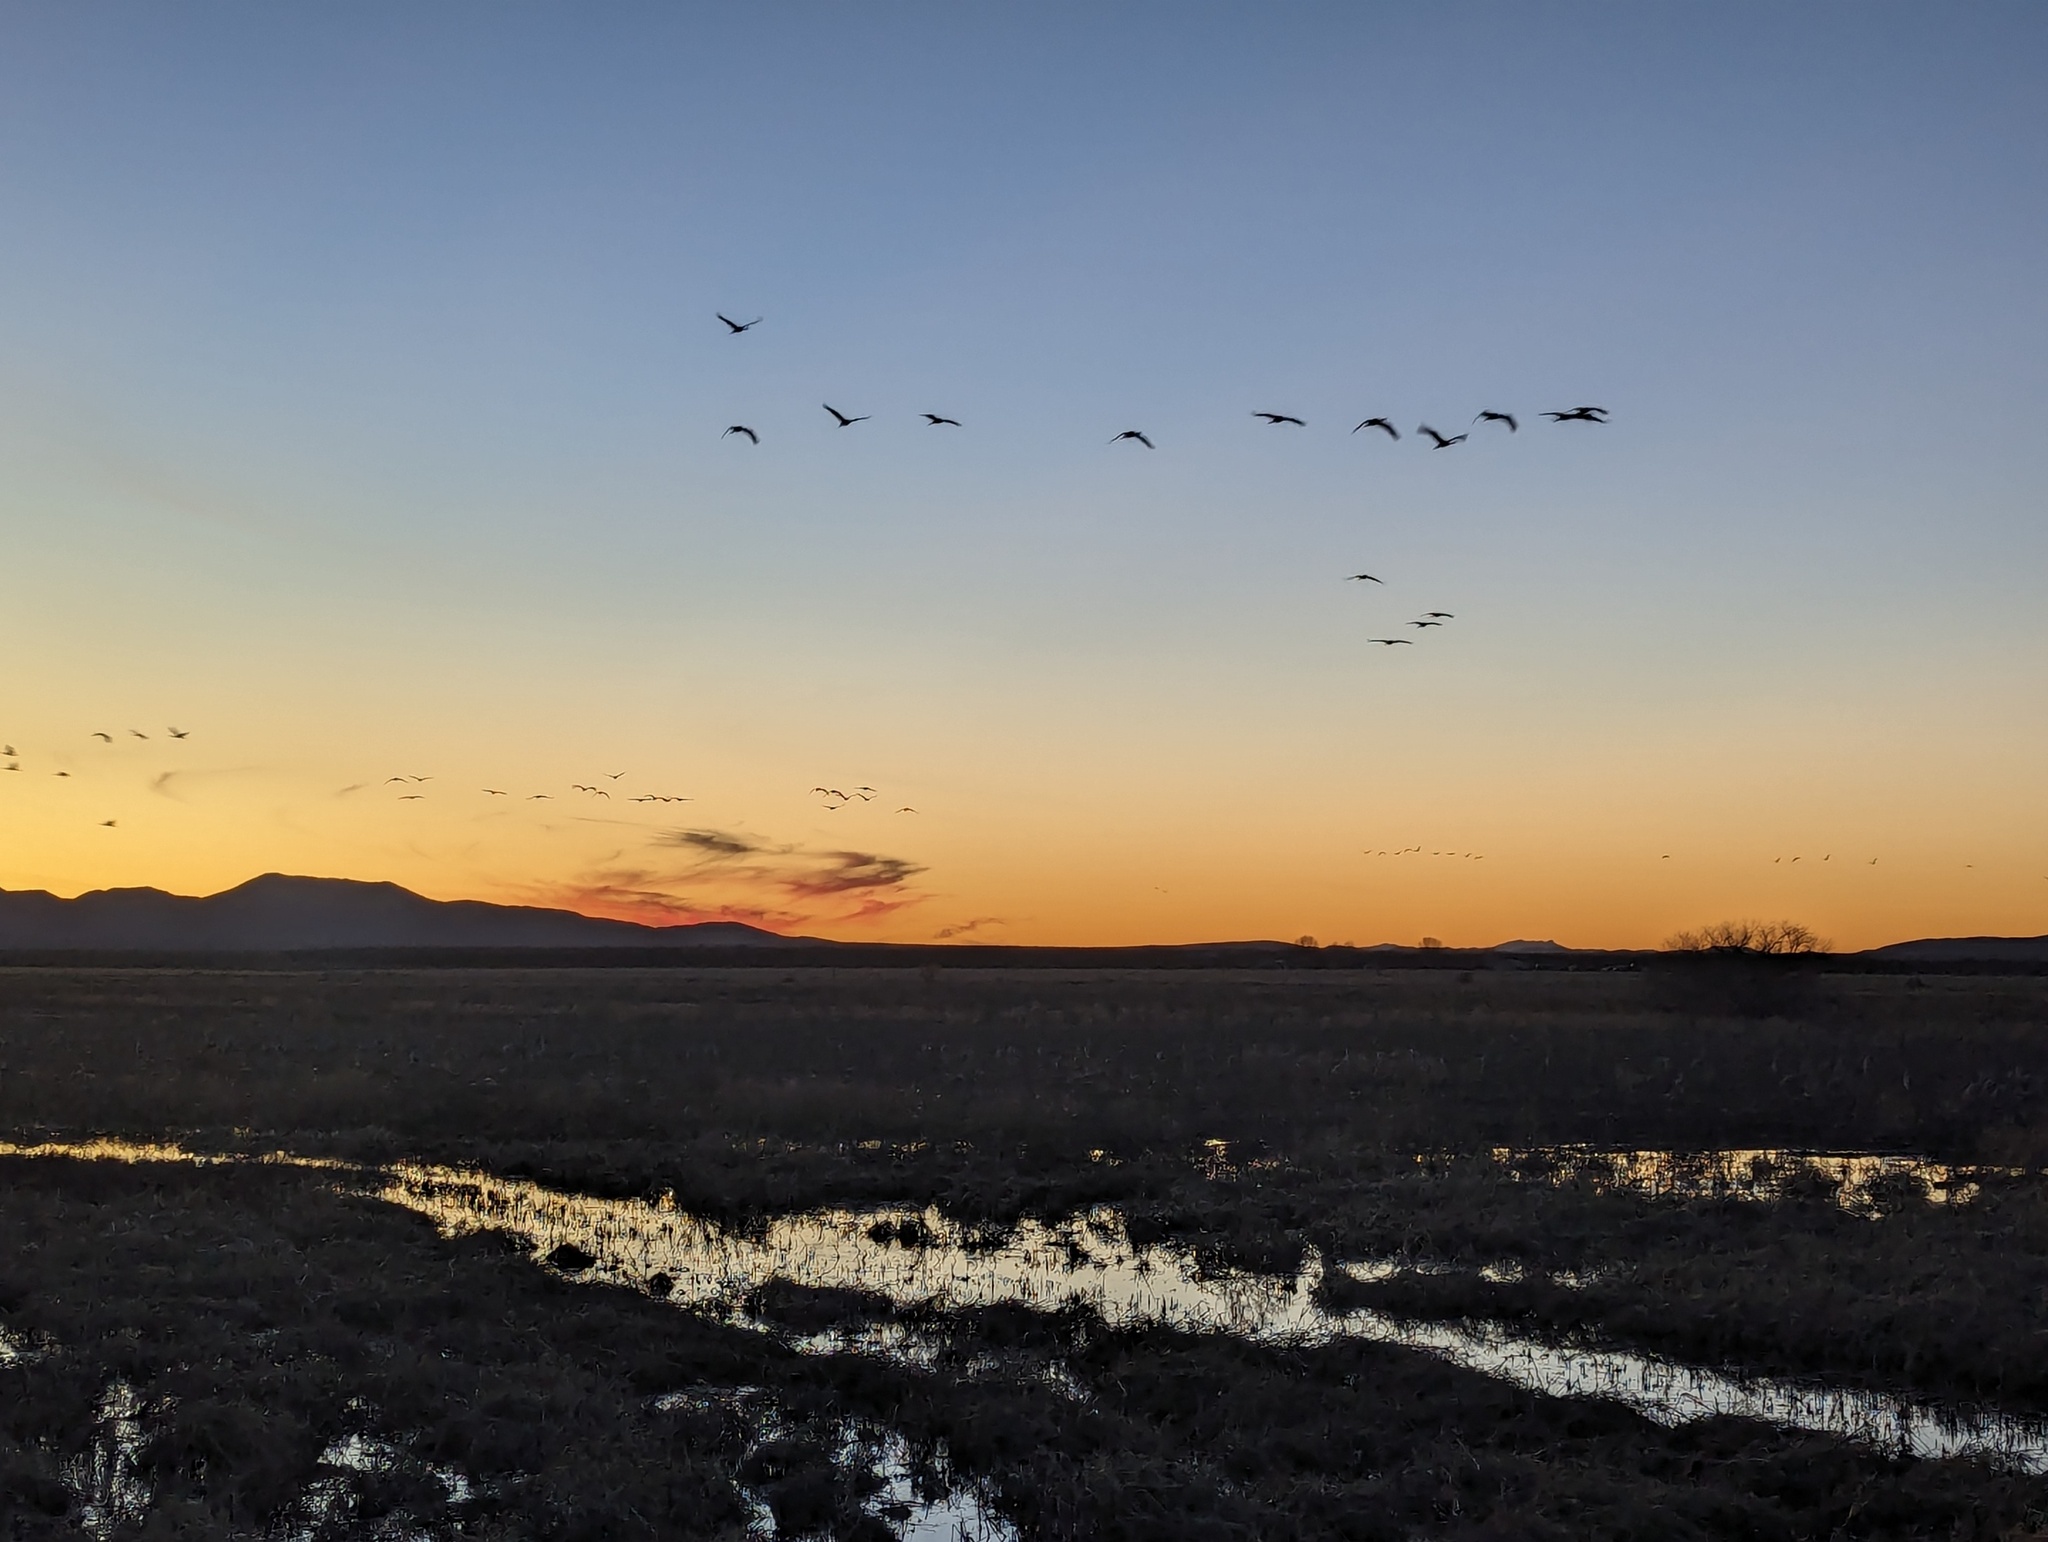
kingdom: Animalia
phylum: Chordata
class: Aves
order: Gruiformes
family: Gruidae
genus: Grus
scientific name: Grus canadensis
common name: Sandhill crane
